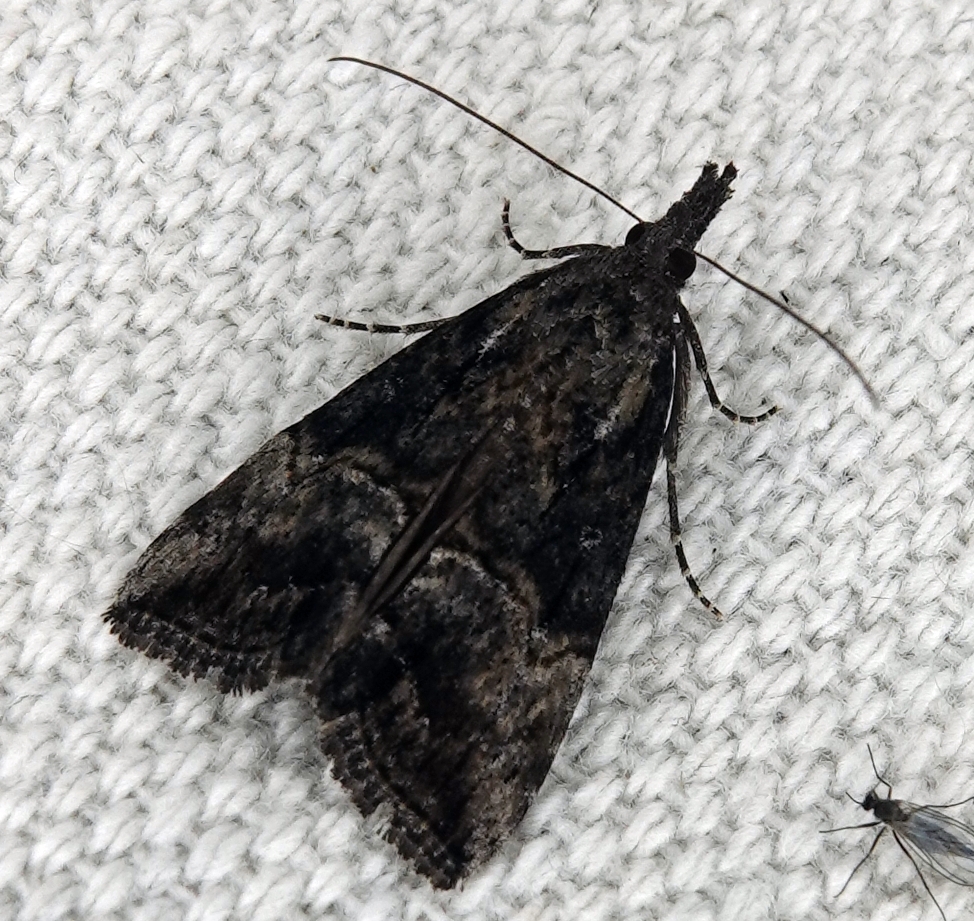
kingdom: Animalia
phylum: Arthropoda
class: Insecta
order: Lepidoptera
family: Erebidae
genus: Hypena
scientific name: Hypena scabra
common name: Green cloverworm
